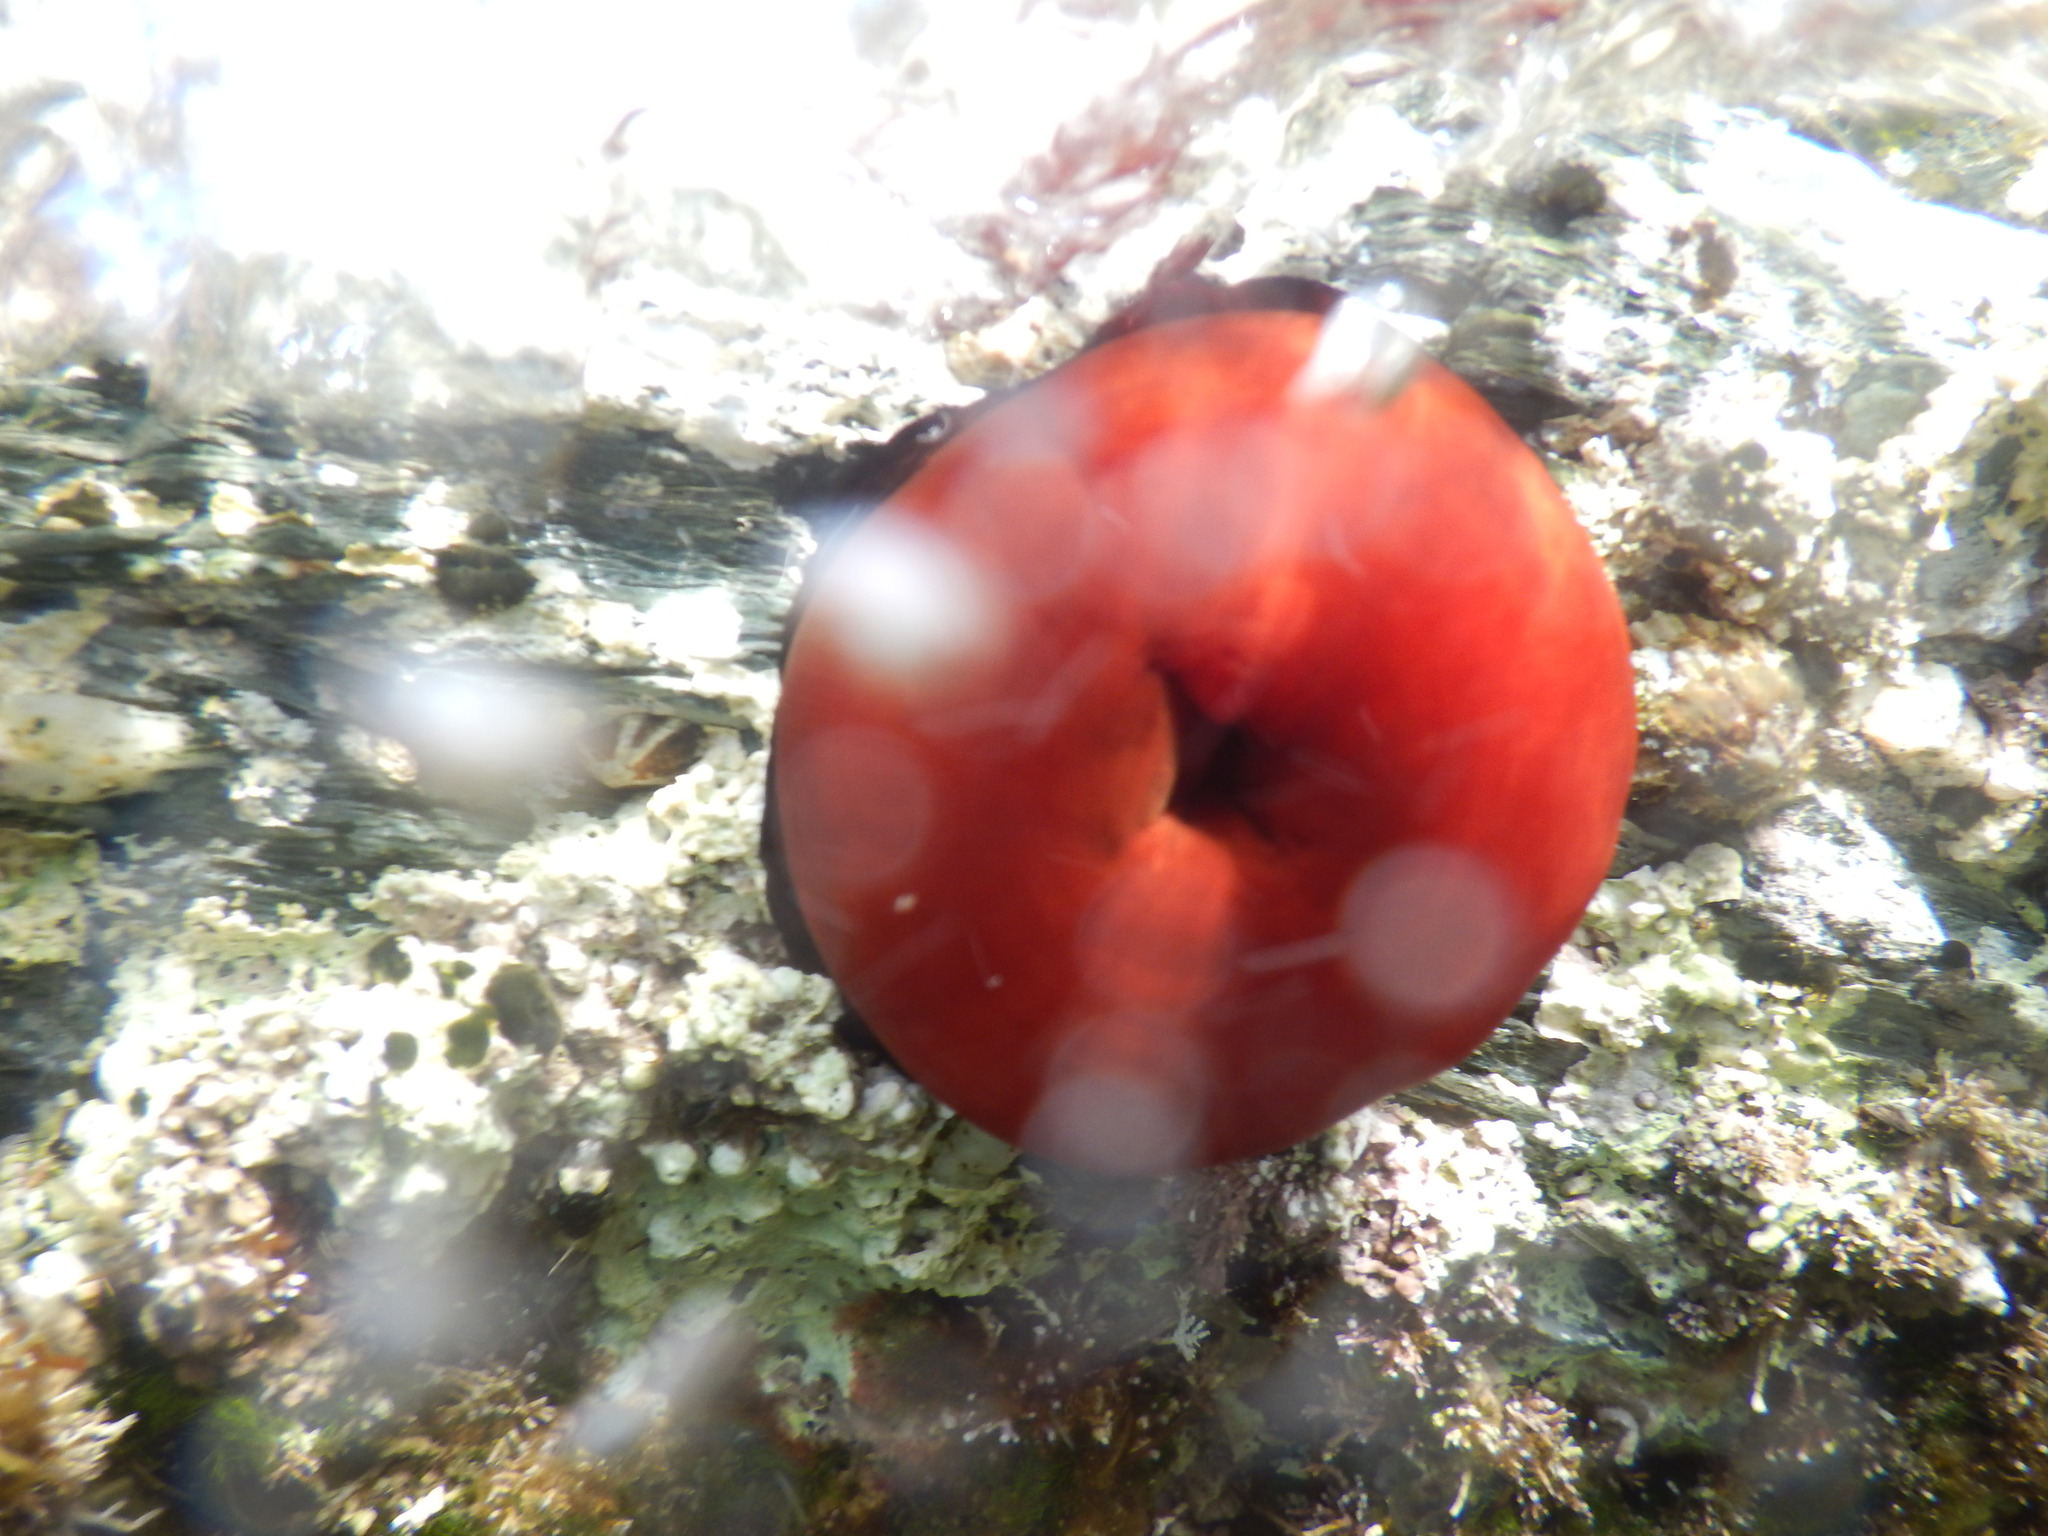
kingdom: Animalia
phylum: Cnidaria
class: Anthozoa
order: Actiniaria
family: Actiniidae
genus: Actinia
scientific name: Actinia mediterranea
